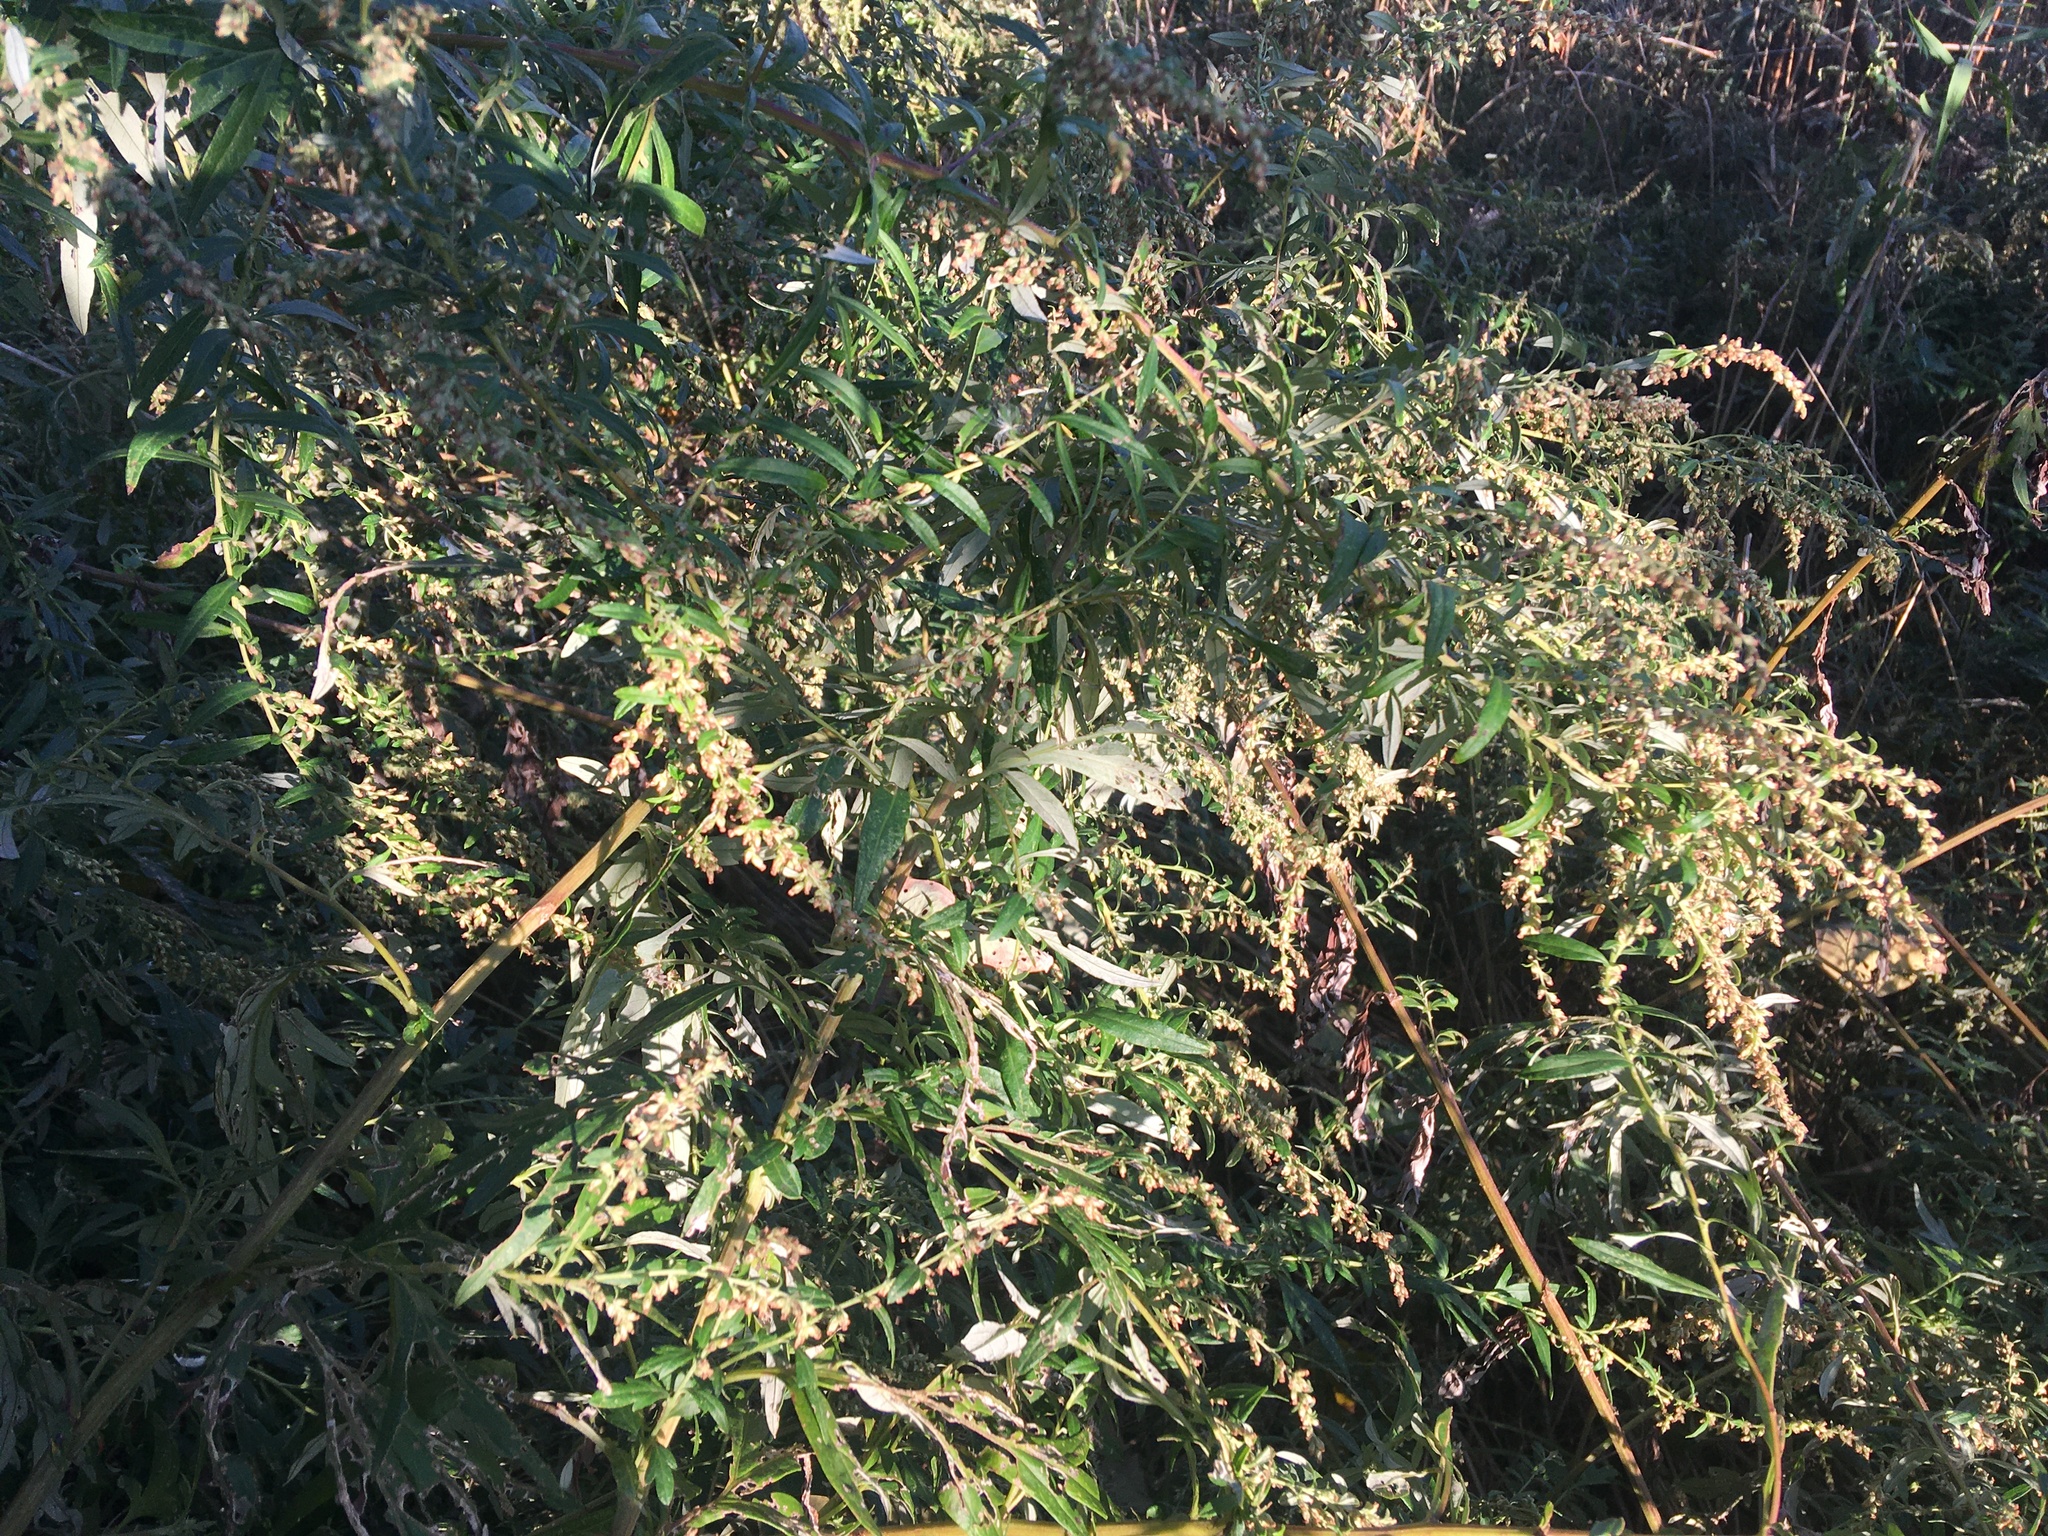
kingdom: Plantae
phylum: Tracheophyta
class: Magnoliopsida
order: Asterales
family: Asteraceae
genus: Artemisia
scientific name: Artemisia vulgaris
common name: Mugwort
